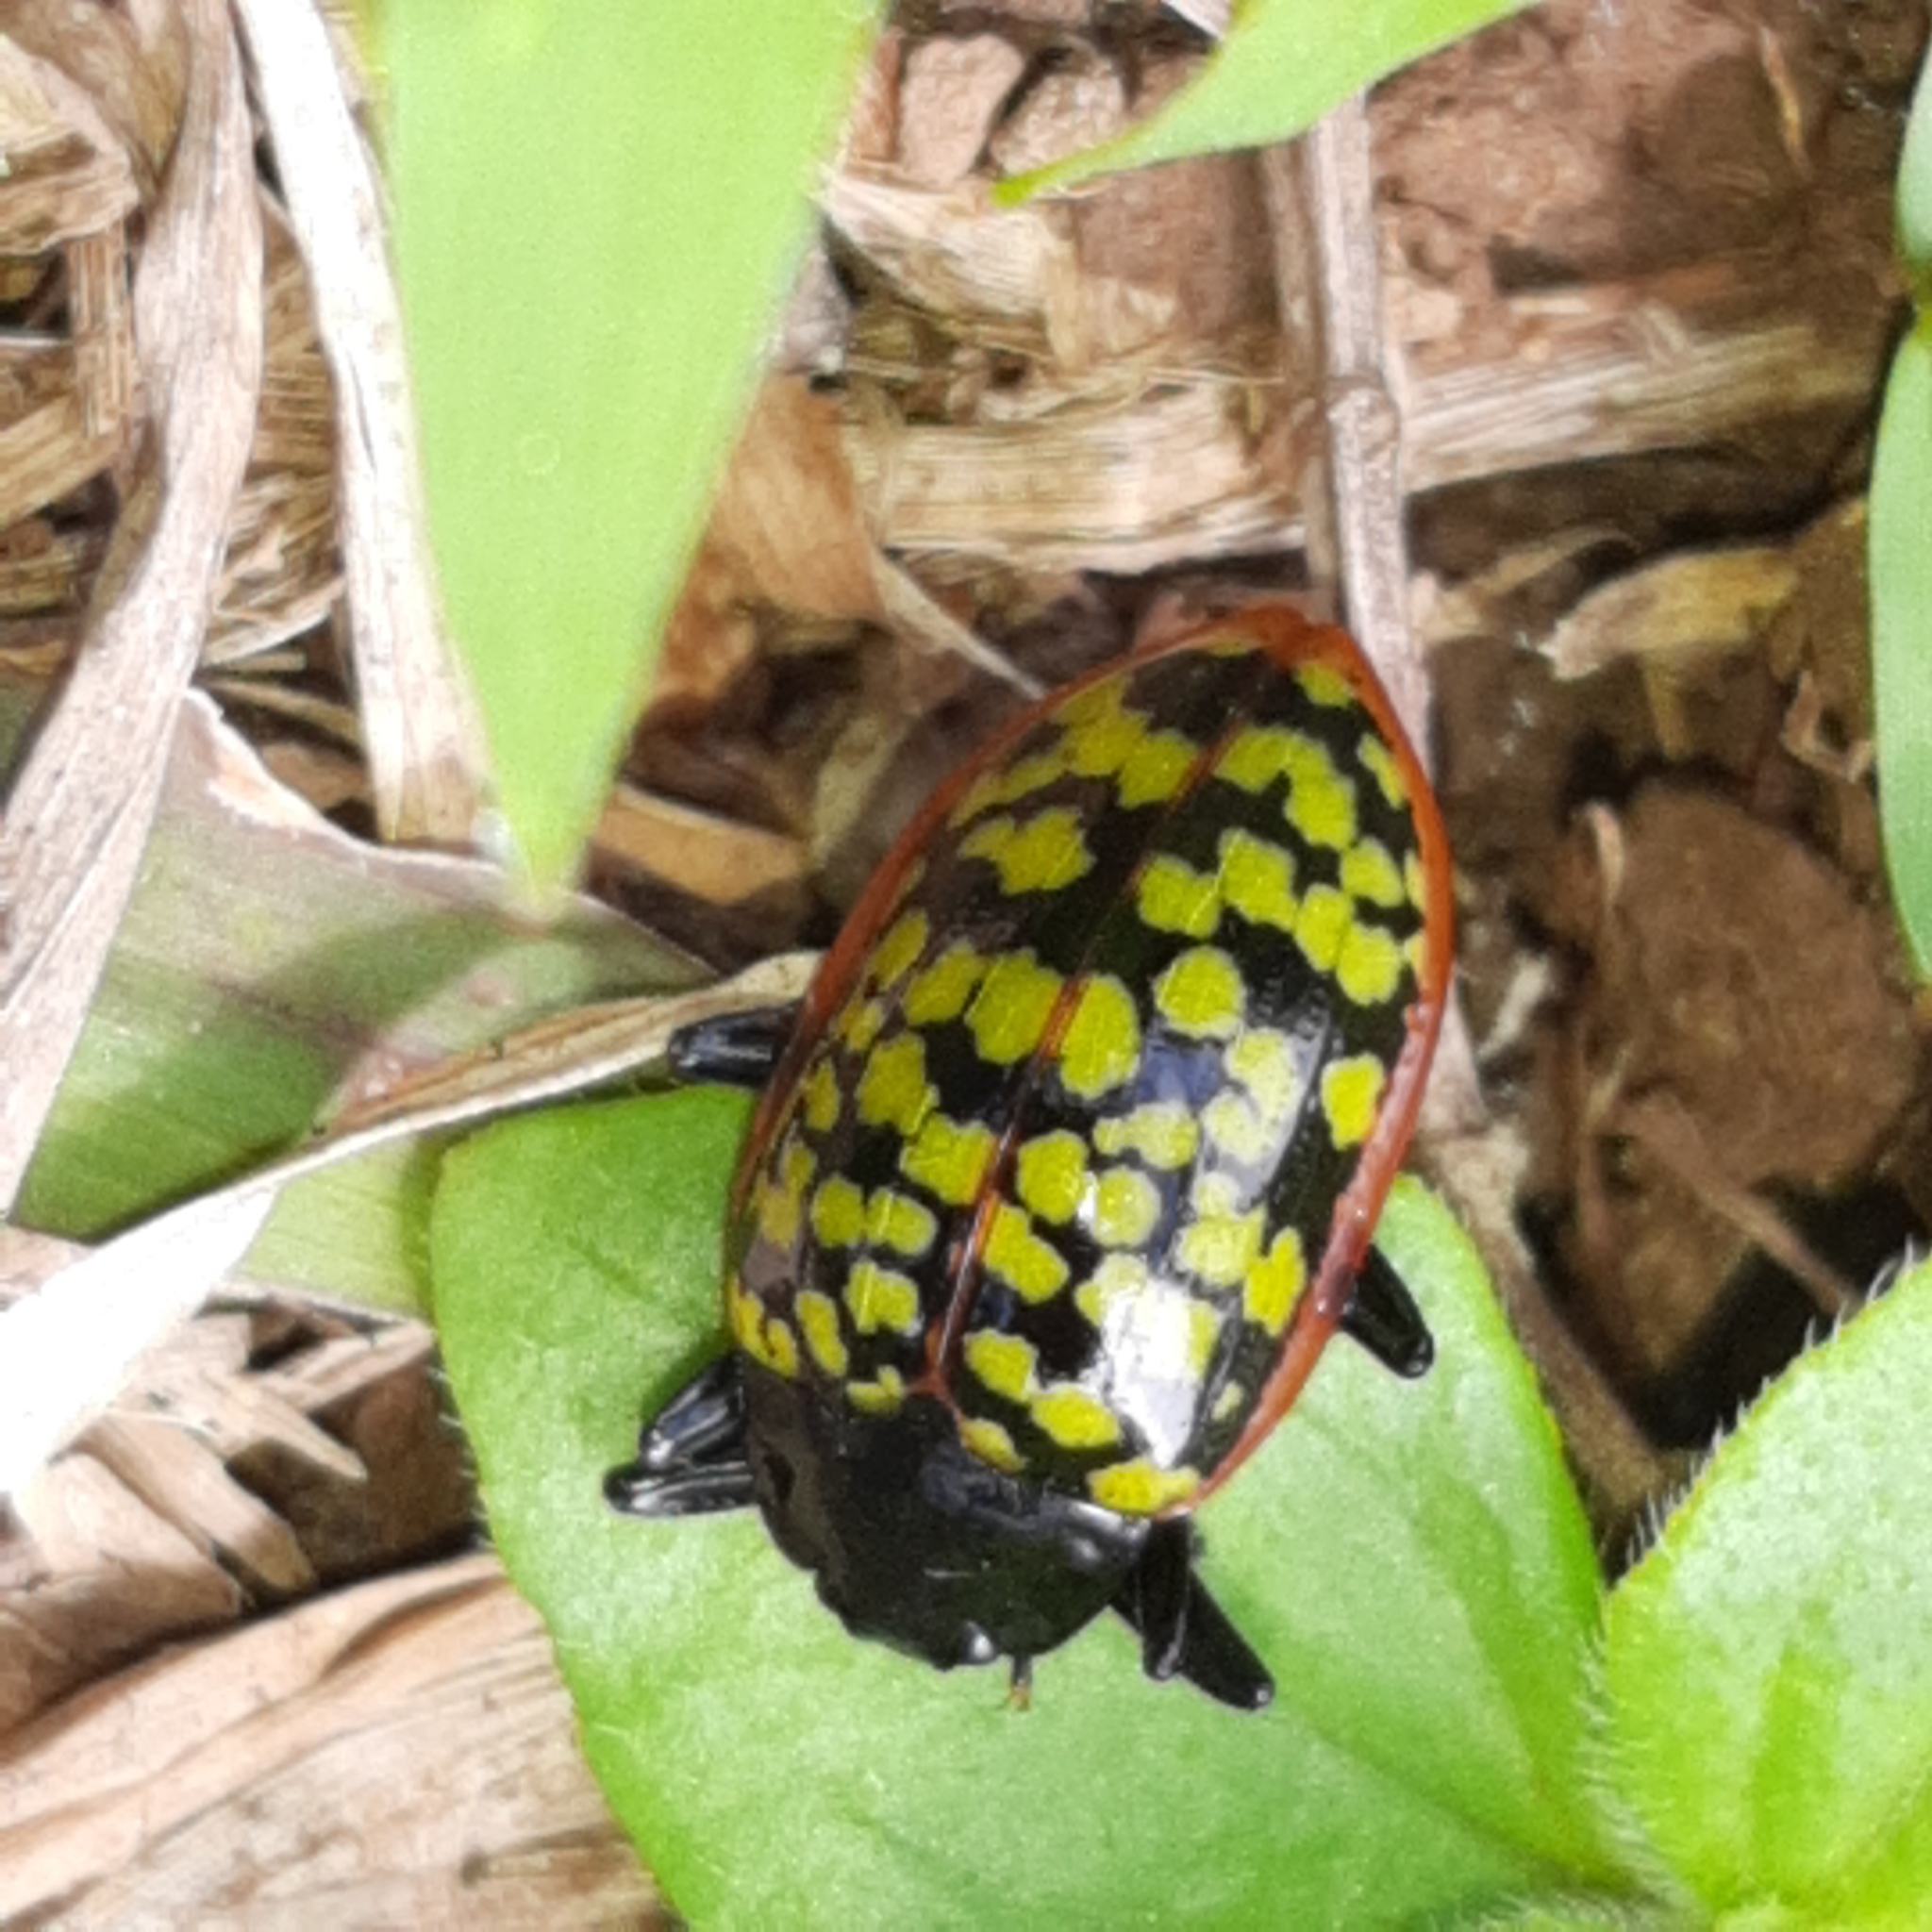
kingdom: Animalia
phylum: Arthropoda
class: Insecta
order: Coleoptera
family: Erotylidae
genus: Erotylina
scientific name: Erotylina
